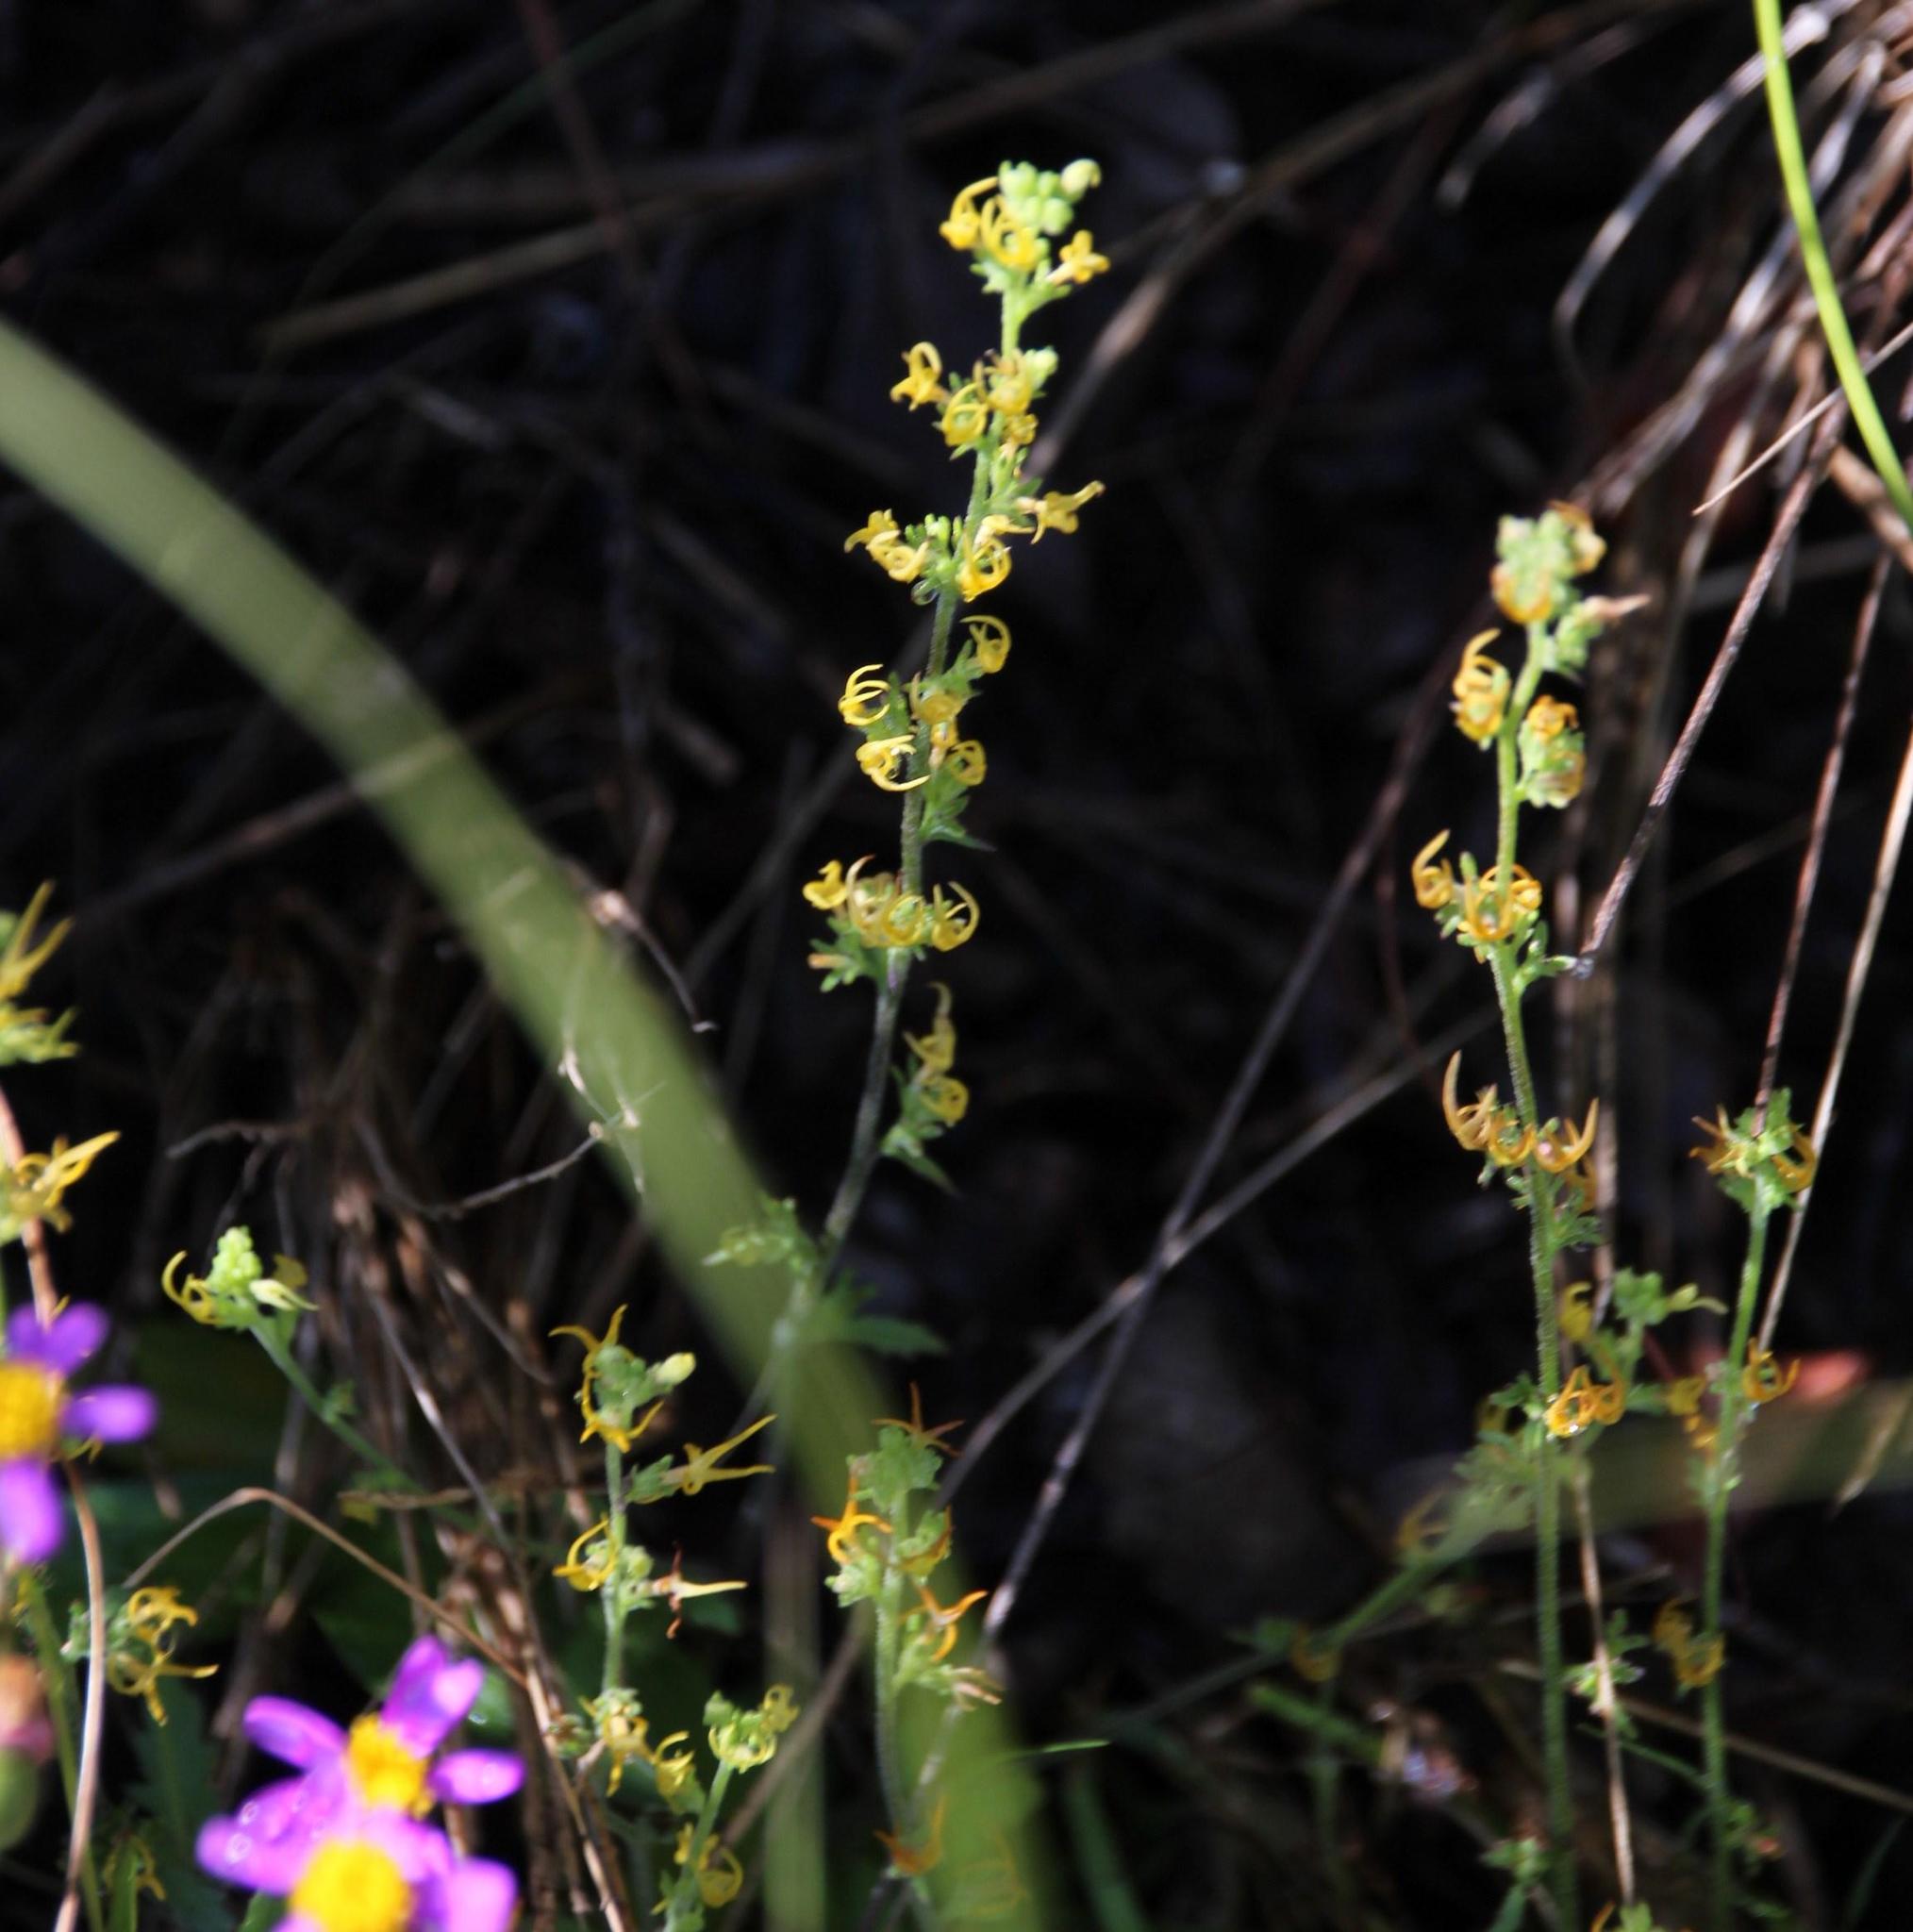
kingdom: Plantae
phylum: Tracheophyta
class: Magnoliopsida
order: Lamiales
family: Scrophulariaceae
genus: Manulea
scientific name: Manulea cheiranthus
